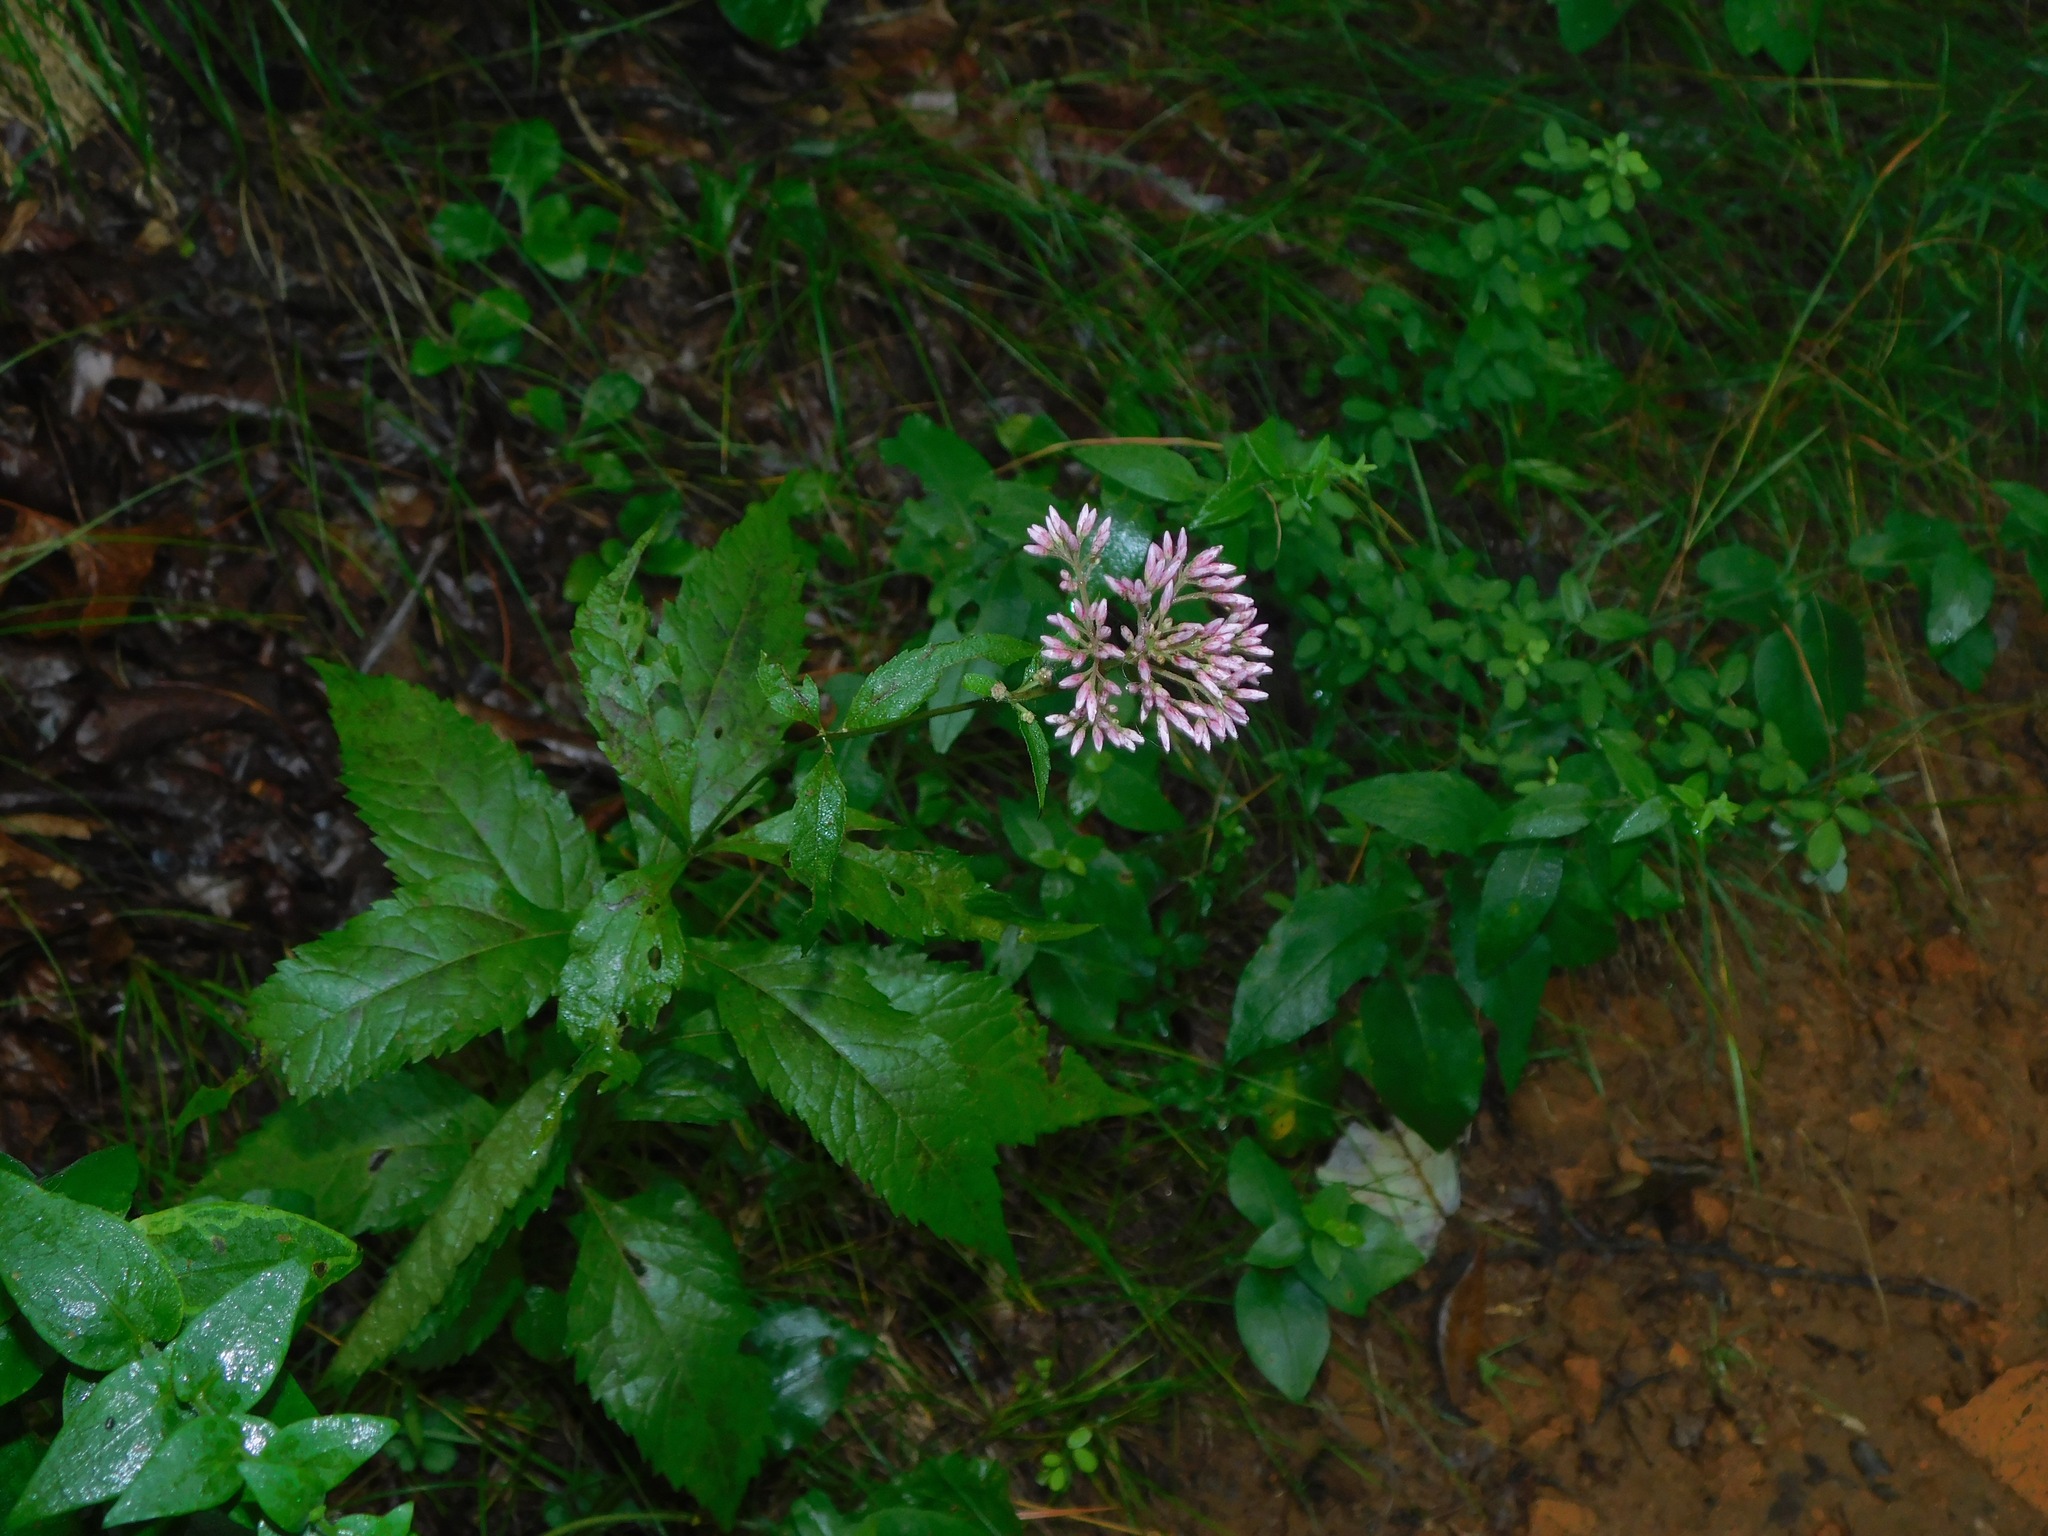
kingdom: Plantae
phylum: Tracheophyta
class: Magnoliopsida
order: Asterales
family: Asteraceae
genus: Eutrochium
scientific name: Eutrochium purpureum
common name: Gravelroot
